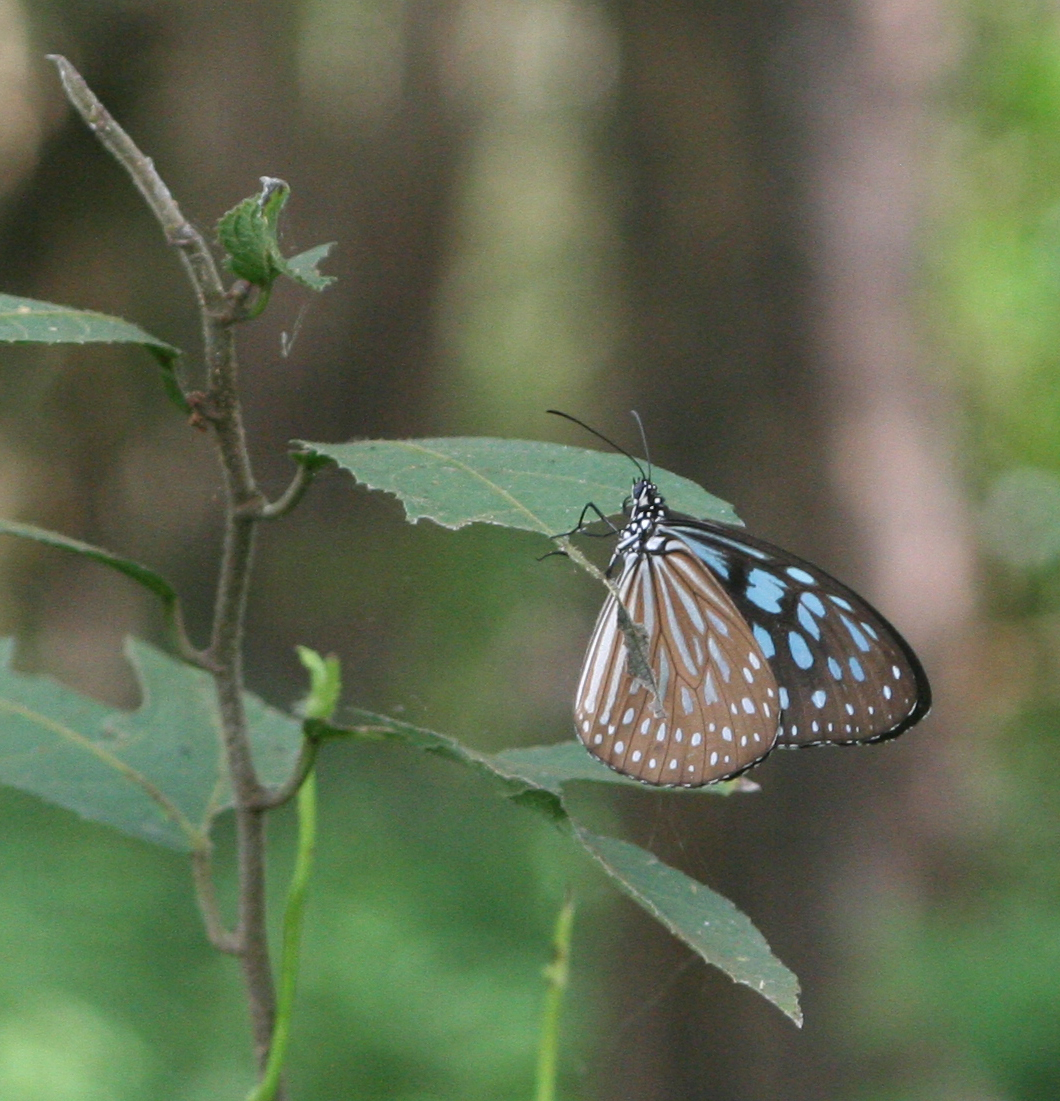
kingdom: Animalia
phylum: Arthropoda
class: Insecta
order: Lepidoptera
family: Nymphalidae
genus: Ideopsis
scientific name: Ideopsis similis
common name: Ceylon blue glassy tiger
